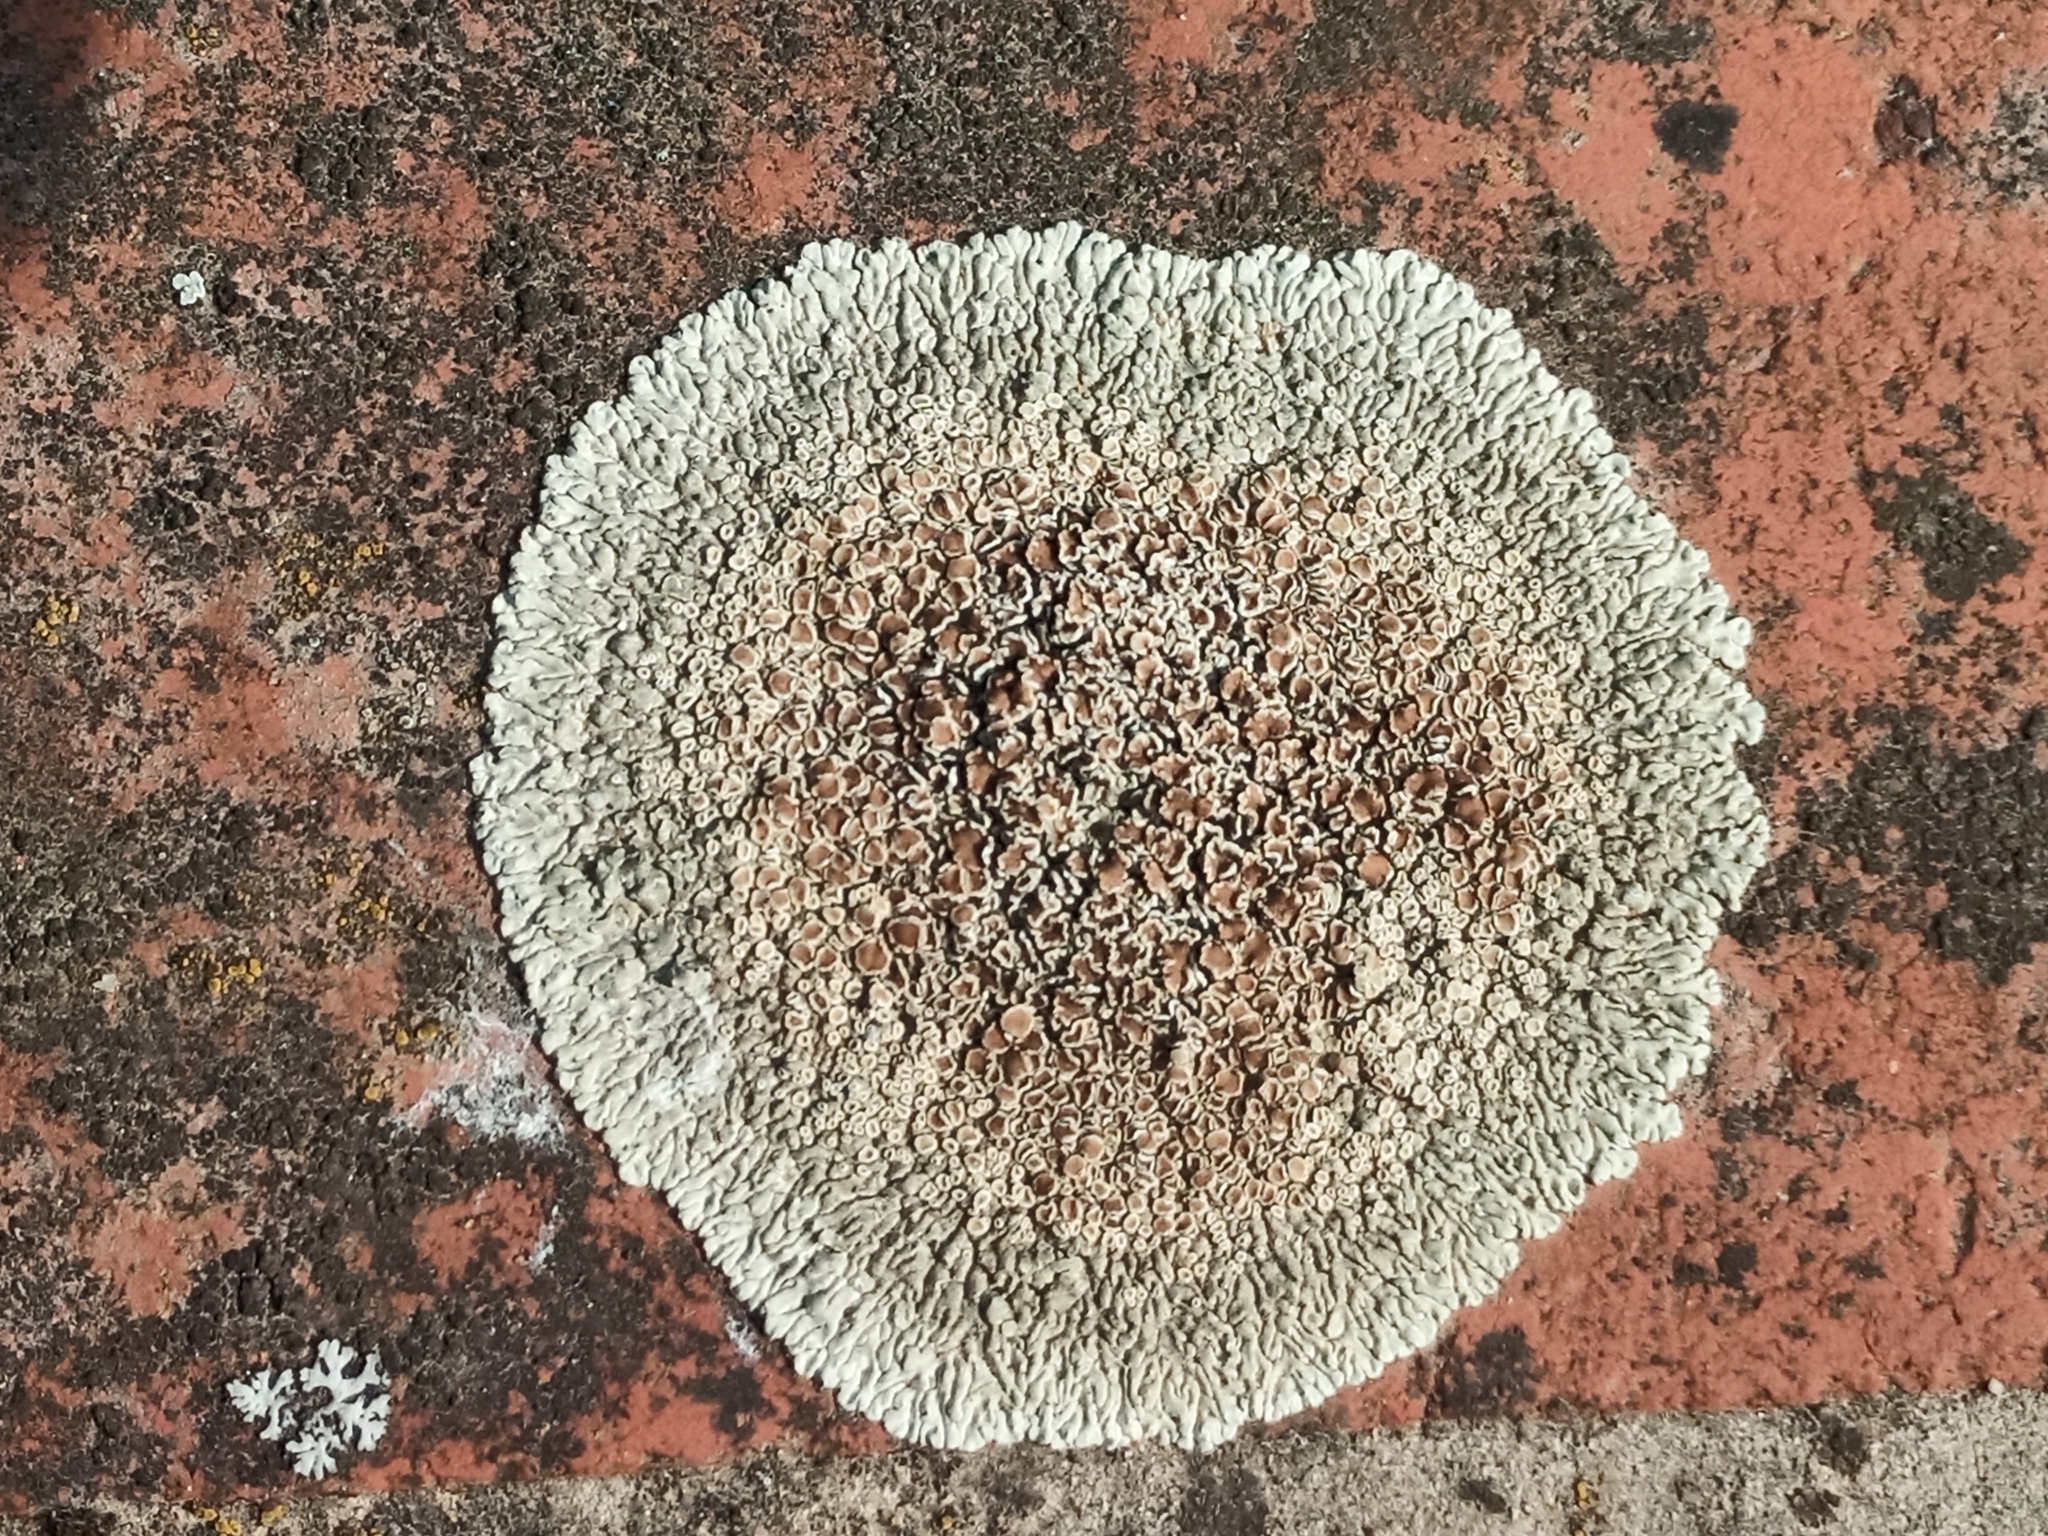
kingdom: Fungi
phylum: Ascomycota
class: Lecanoromycetes
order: Lecanorales
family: Lecanoraceae
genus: Protoparmeliopsis
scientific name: Protoparmeliopsis muralis
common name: Stonewall rim lichen
